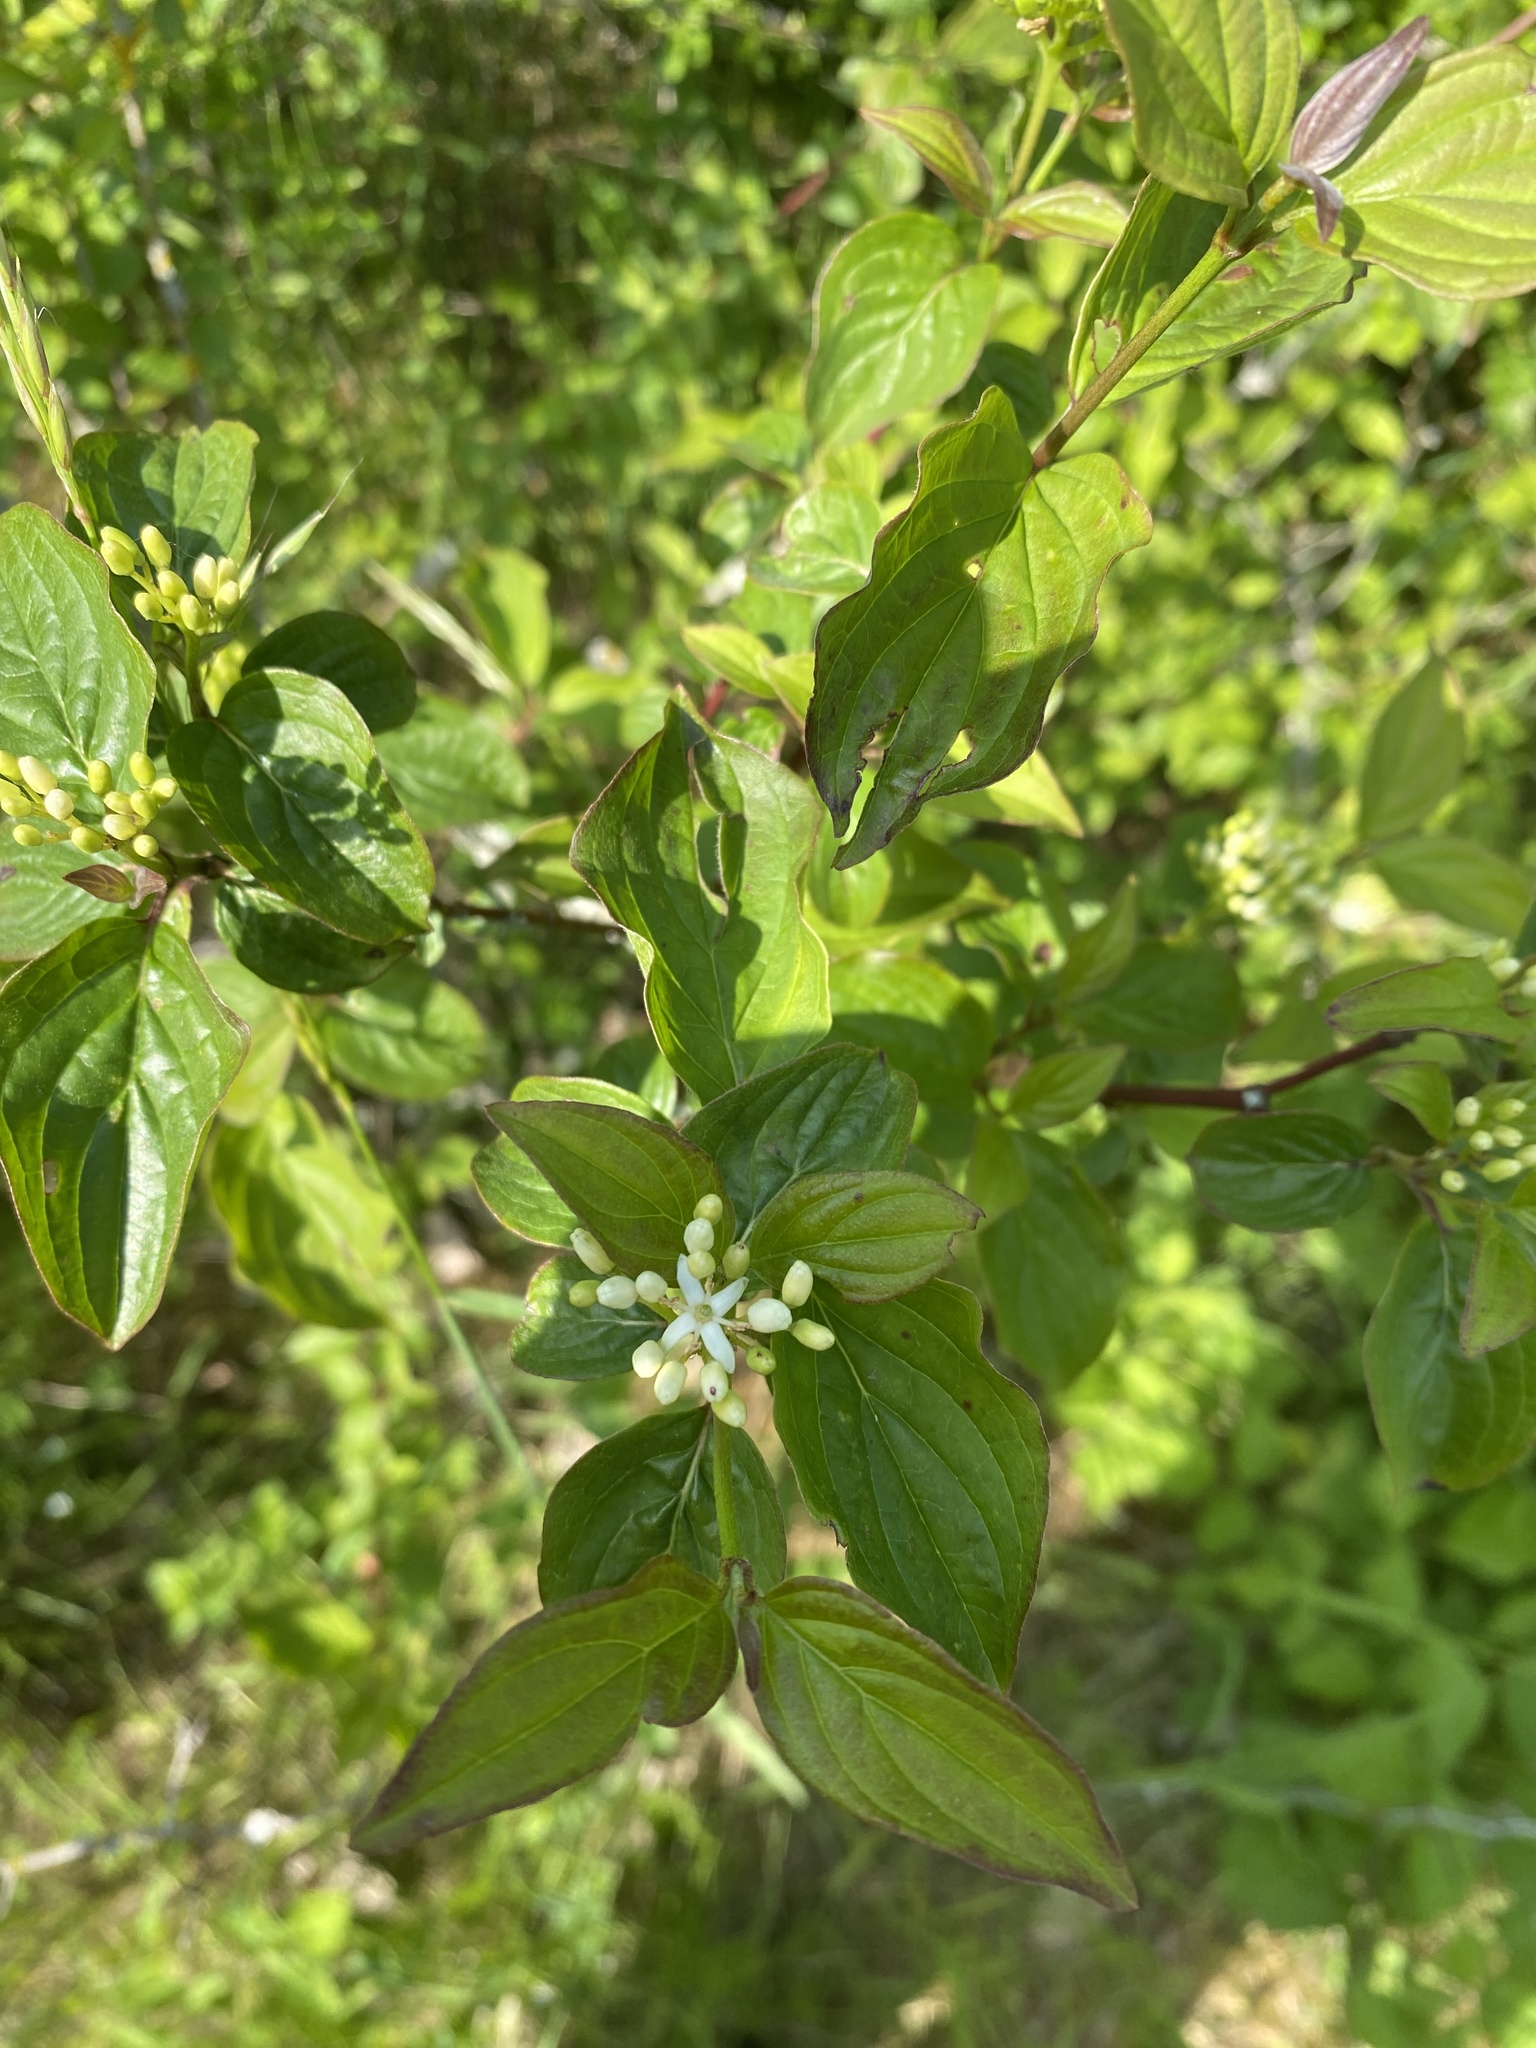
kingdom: Plantae
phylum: Tracheophyta
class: Magnoliopsida
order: Cornales
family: Cornaceae
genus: Cornus
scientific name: Cornus sanguinea
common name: Dogwood
